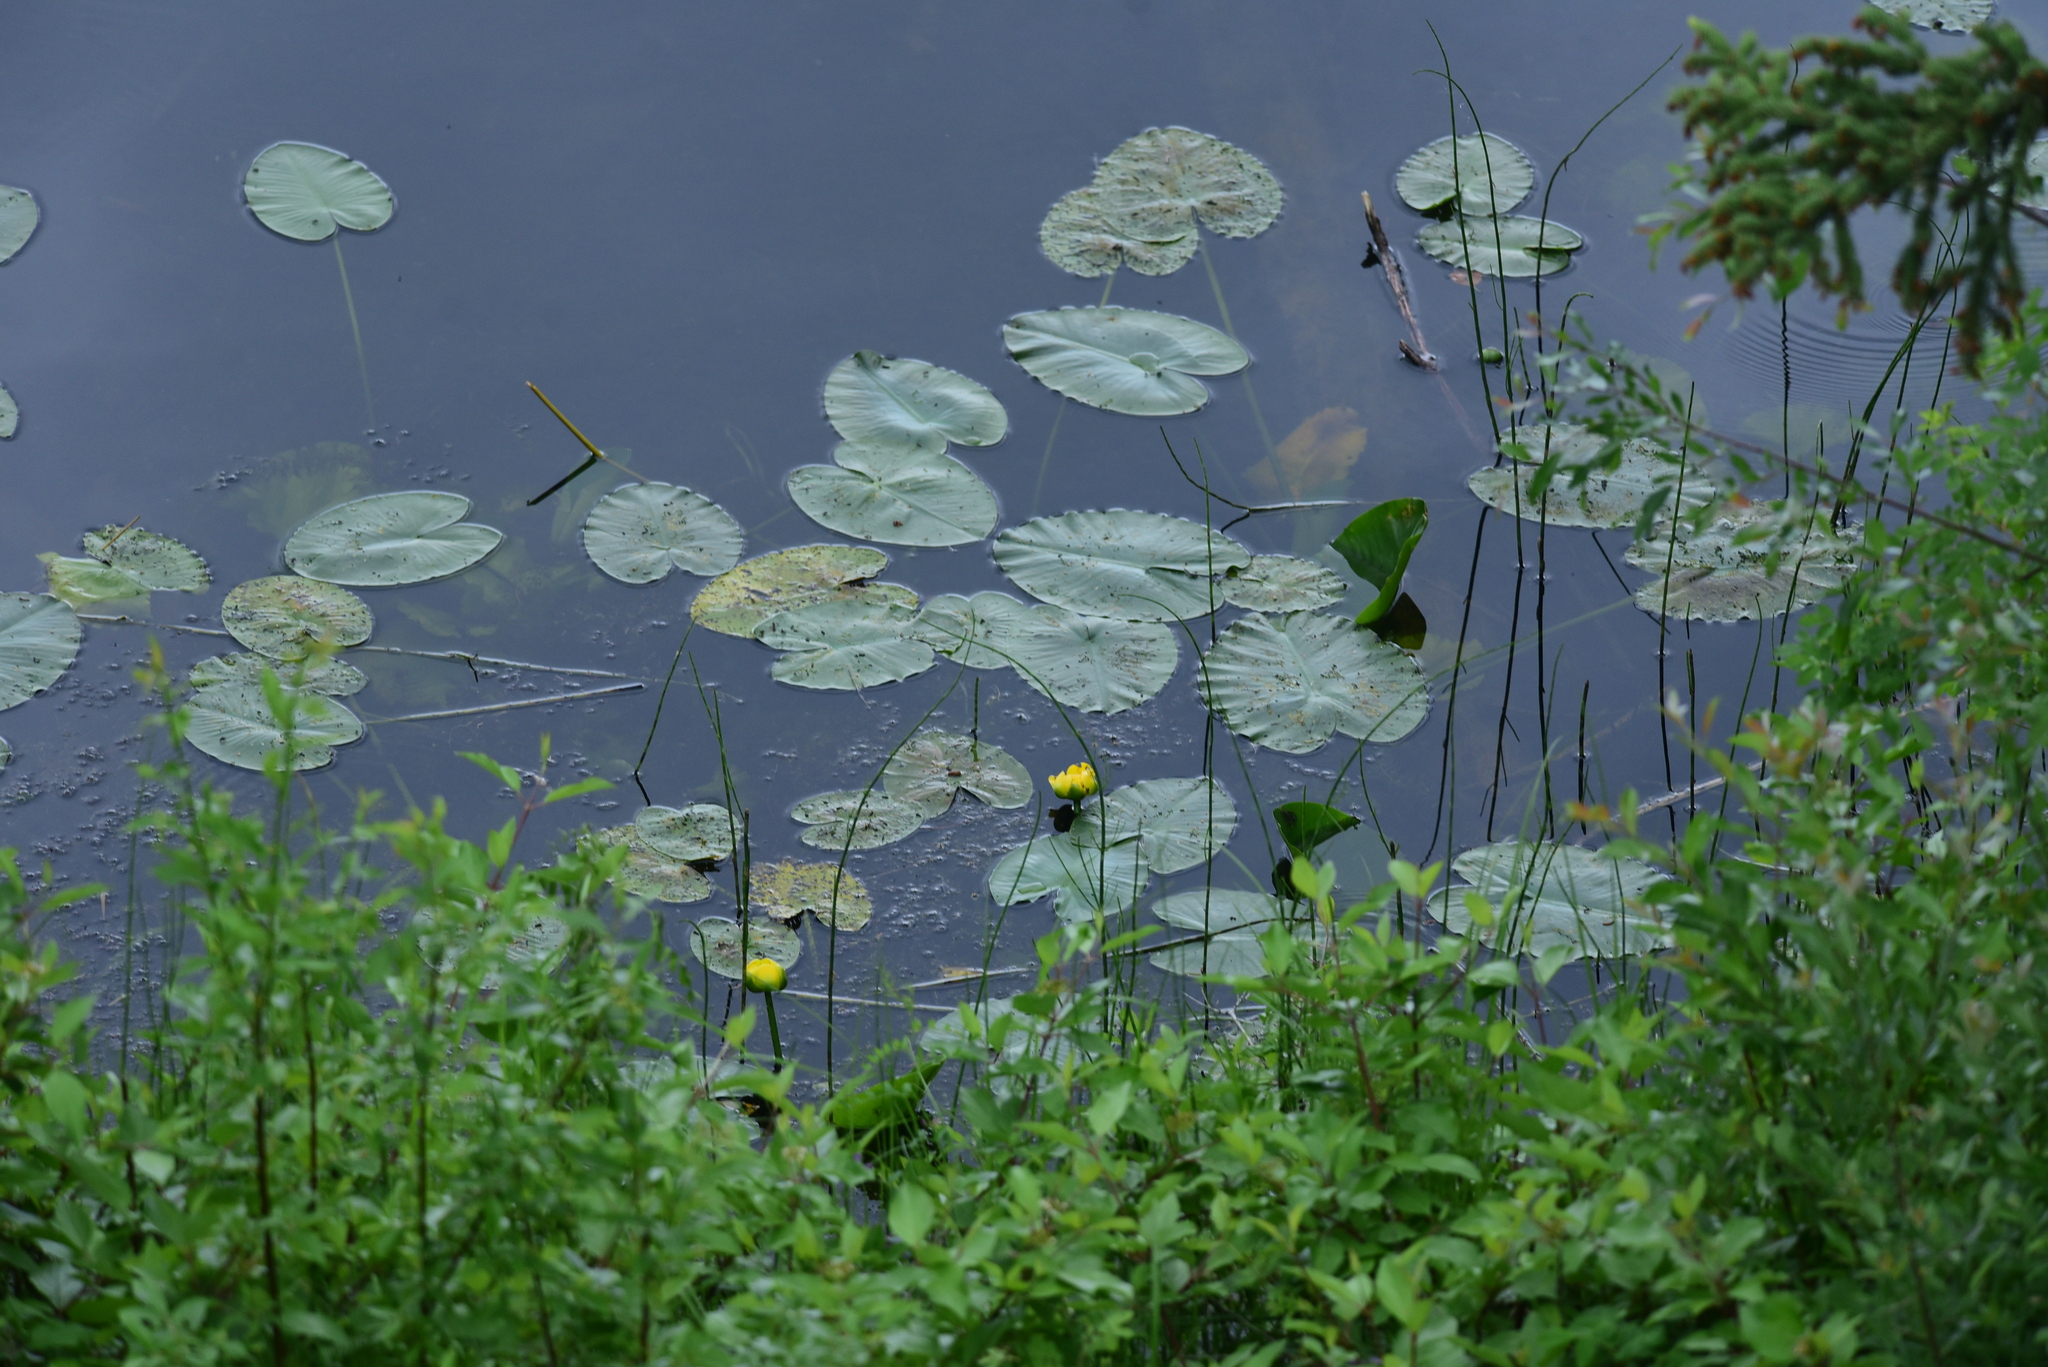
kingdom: Plantae
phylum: Tracheophyta
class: Magnoliopsida
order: Nymphaeales
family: Nymphaeaceae
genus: Nuphar
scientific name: Nuphar polysepala
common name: Rocky mountain cow-lily
